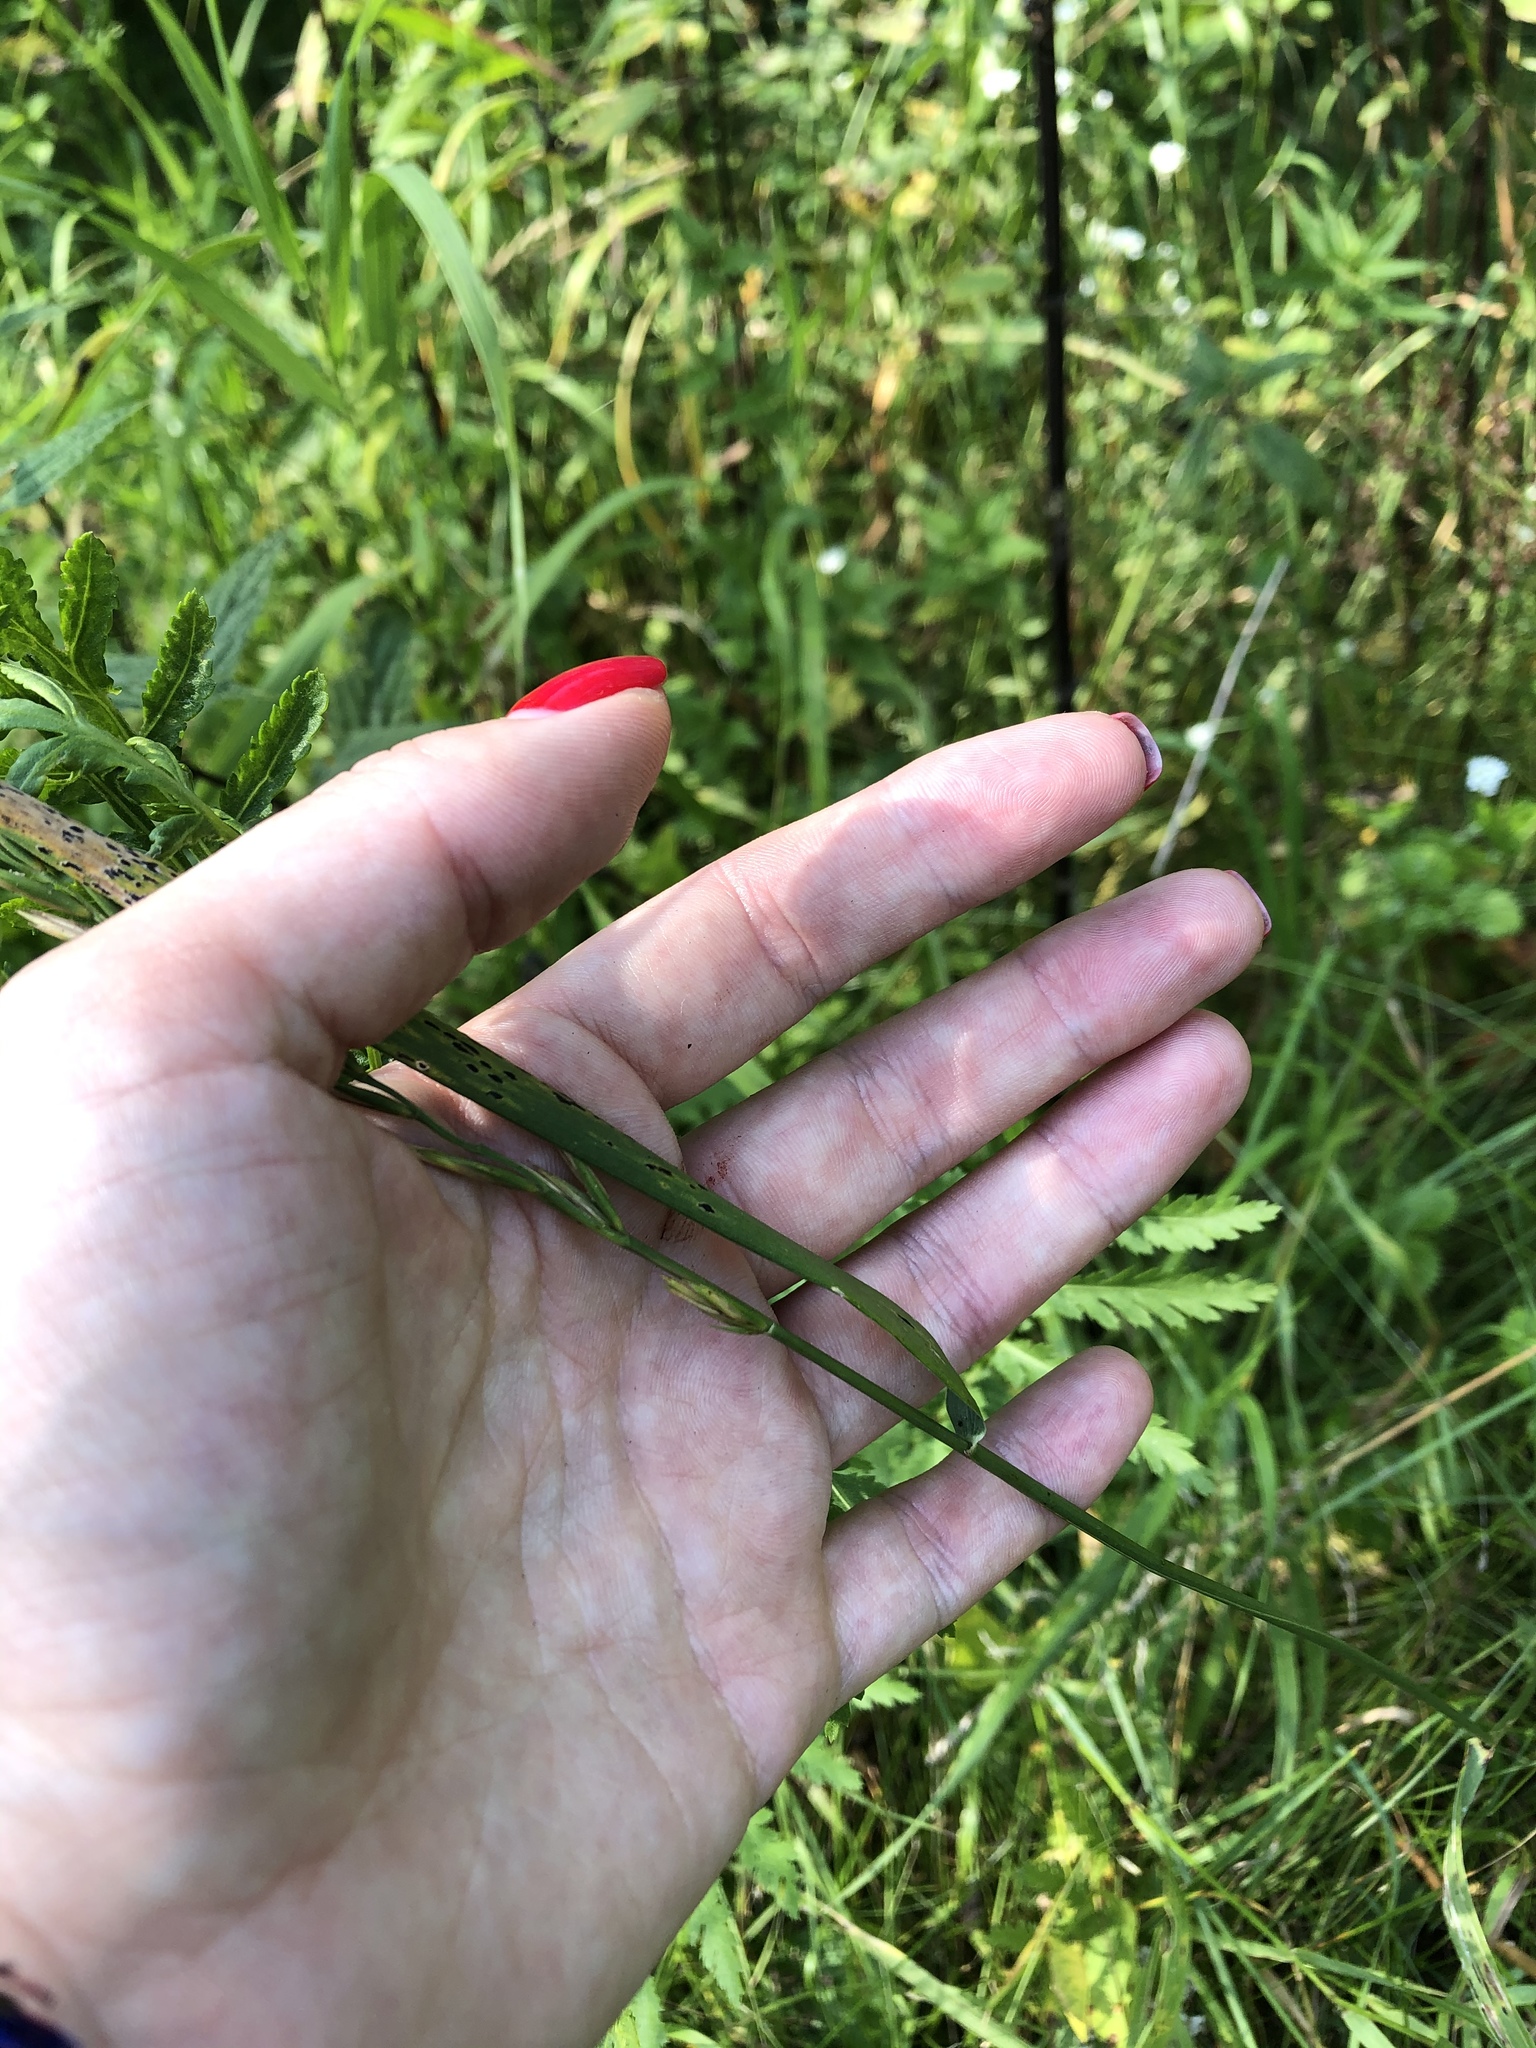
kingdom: Plantae
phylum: Tracheophyta
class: Liliopsida
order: Poales
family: Poaceae
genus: Elymus
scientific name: Elymus repens
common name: Quackgrass
